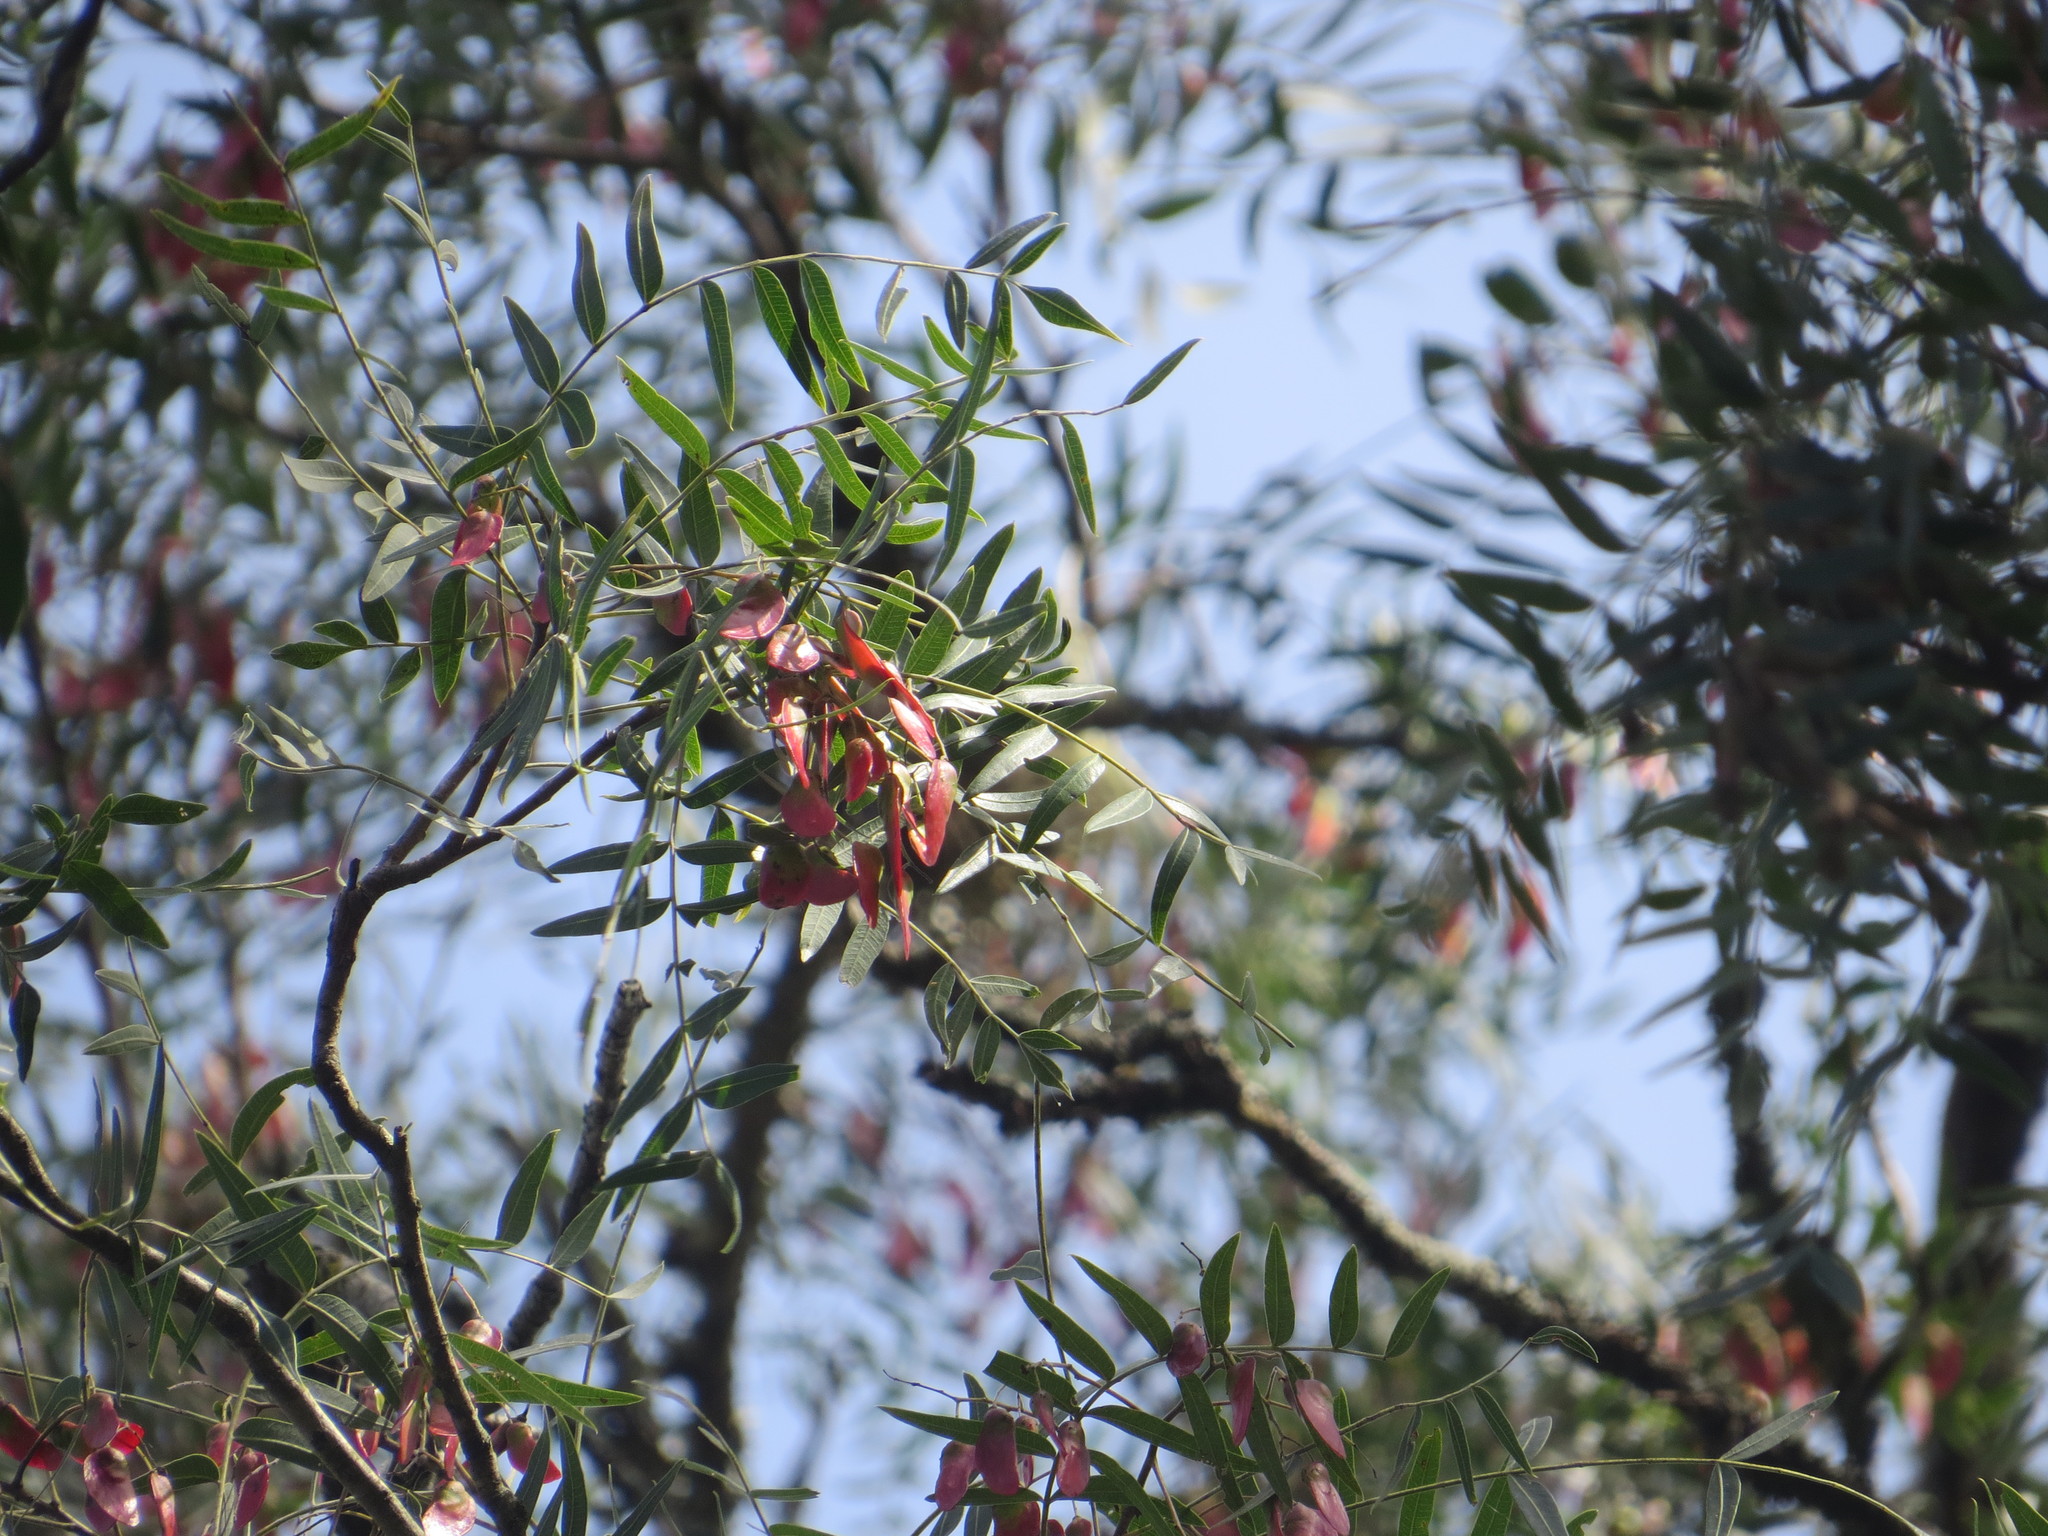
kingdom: Plantae
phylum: Tracheophyta
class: Magnoliopsida
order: Sapindales
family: Anacardiaceae
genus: Schinopsis
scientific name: Schinopsis lorentzii
